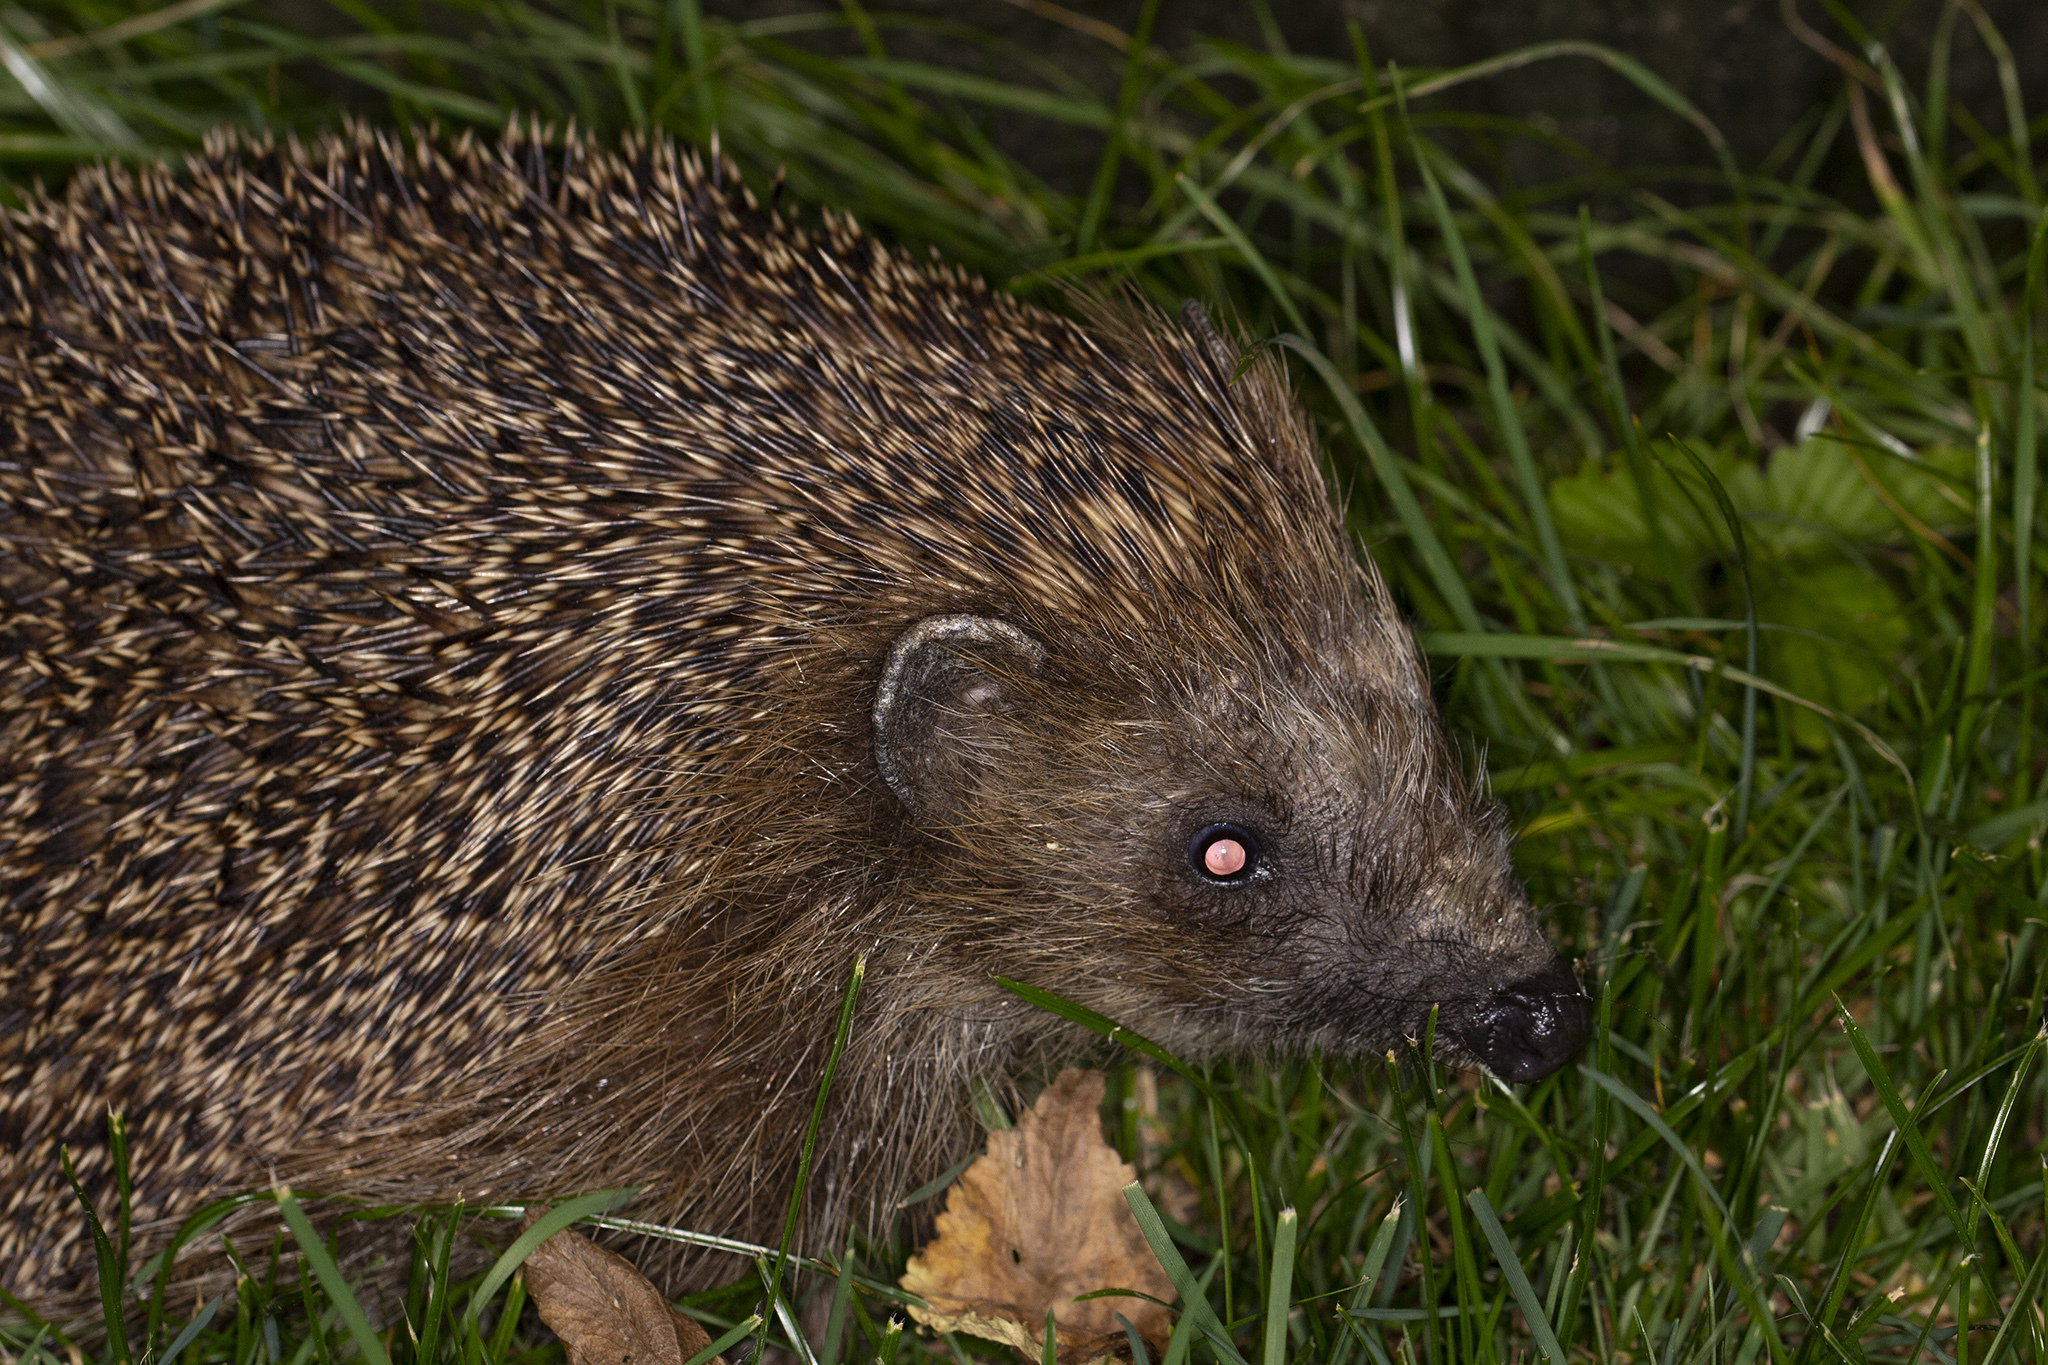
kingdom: Animalia
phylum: Chordata
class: Mammalia
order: Erinaceomorpha
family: Erinaceidae
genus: Erinaceus
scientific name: Erinaceus europaeus
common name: West european hedgehog
